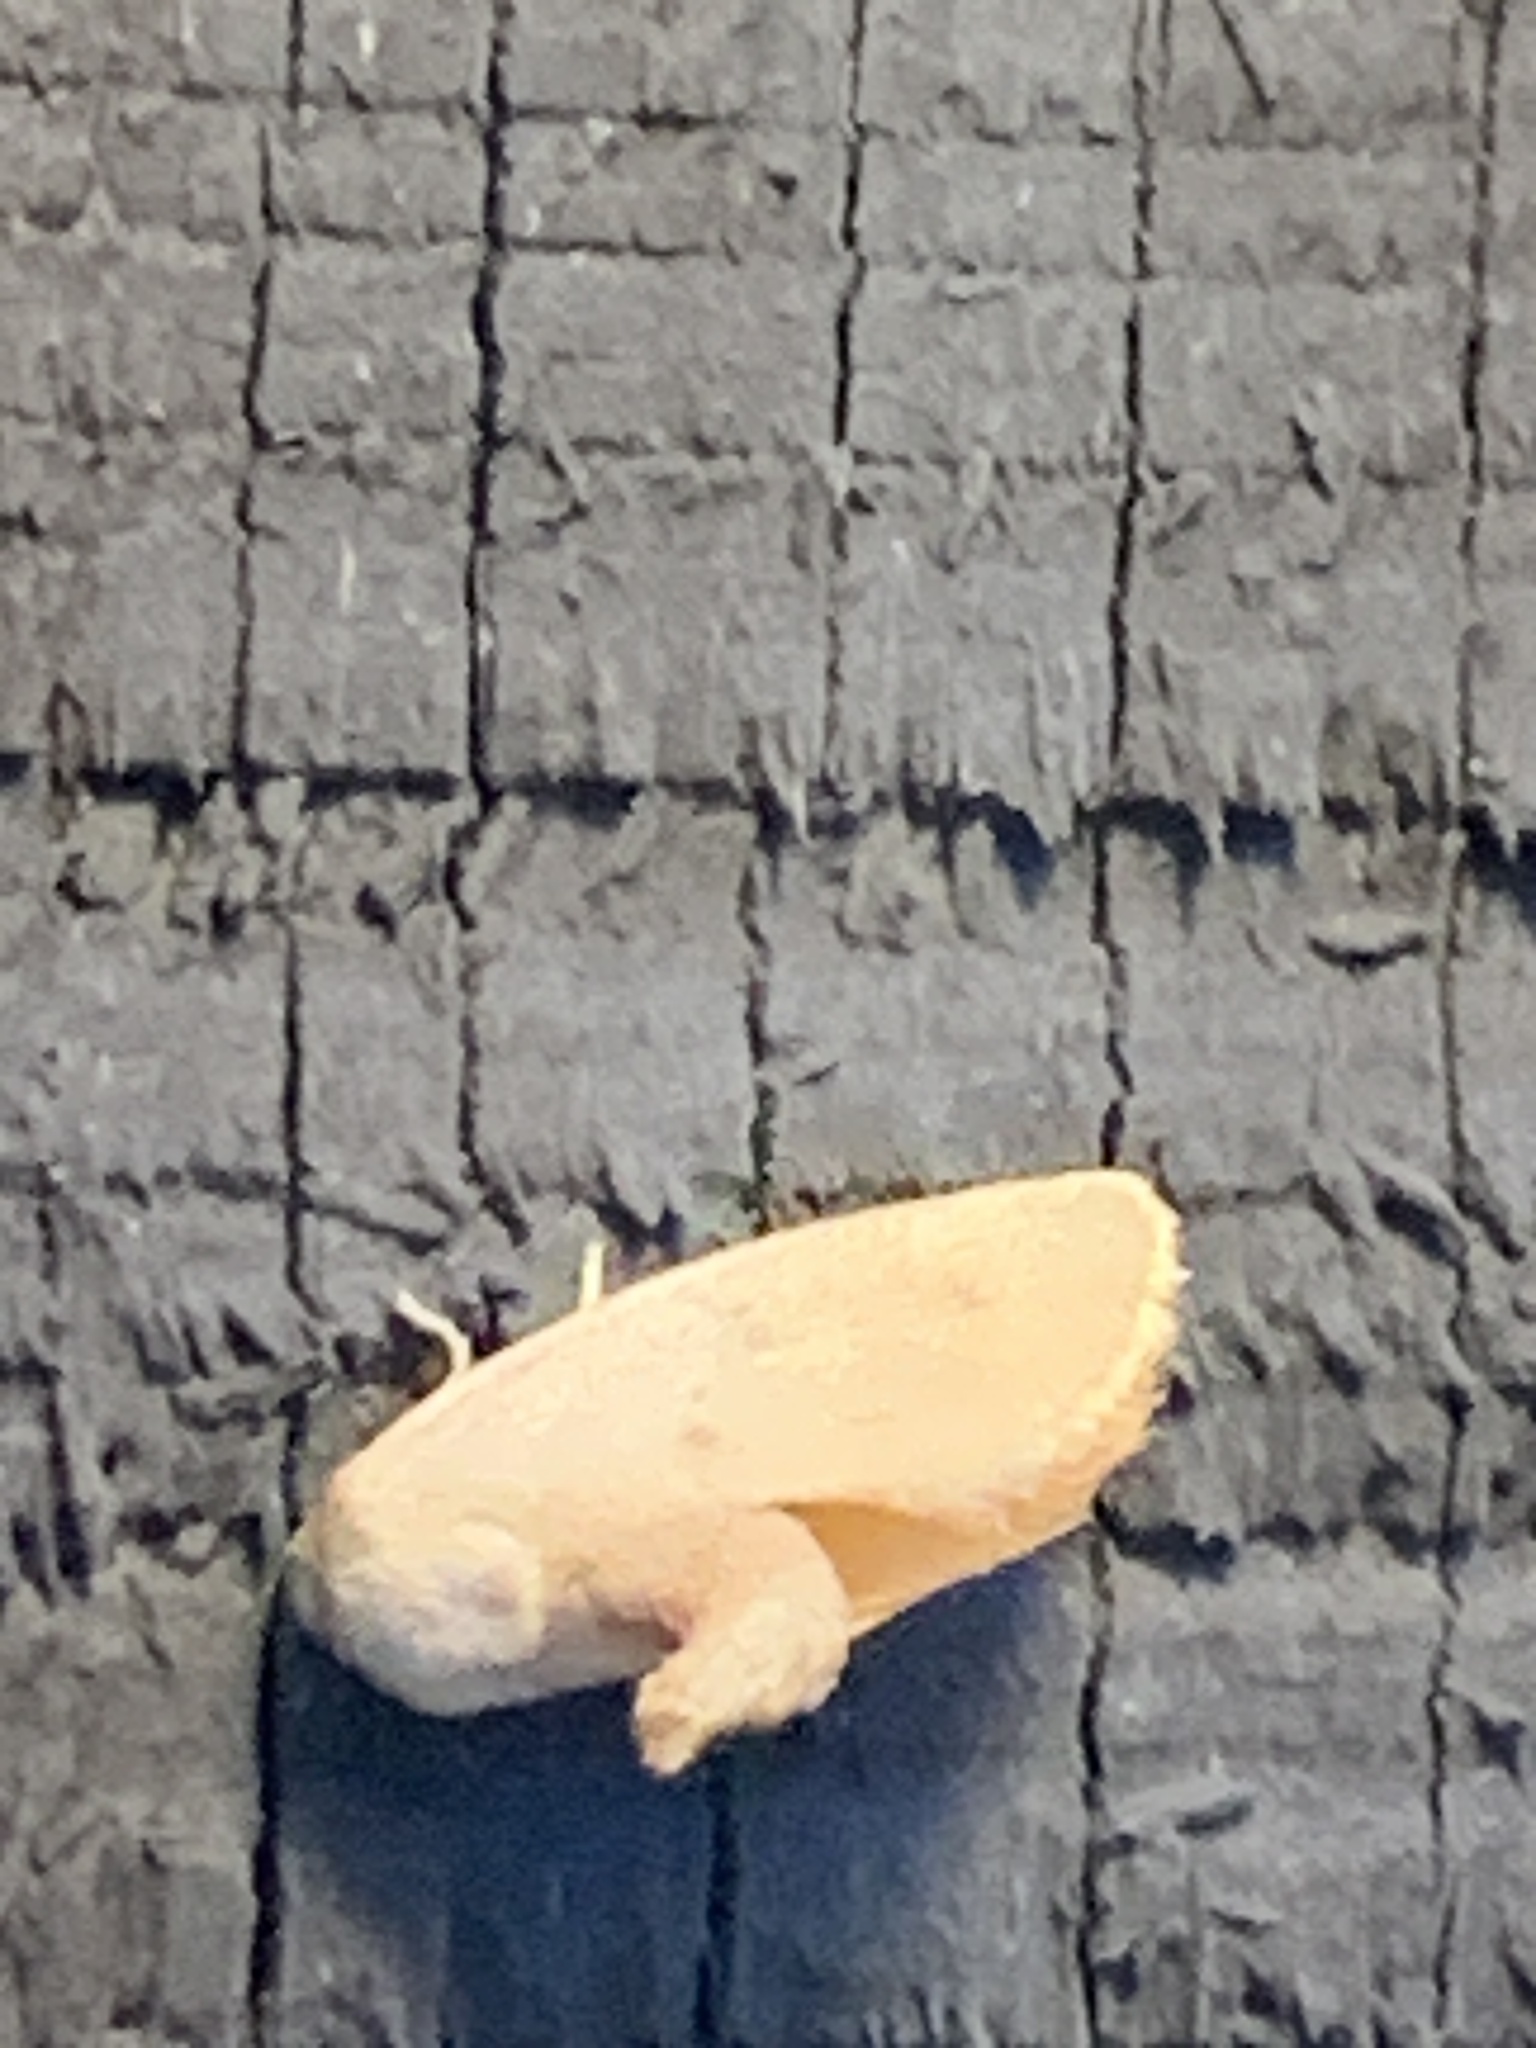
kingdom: Animalia
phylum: Arthropoda
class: Insecta
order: Lepidoptera
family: Limacodidae
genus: Tortricidia
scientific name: Tortricidia pallida
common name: Red-crossed button slug moth
